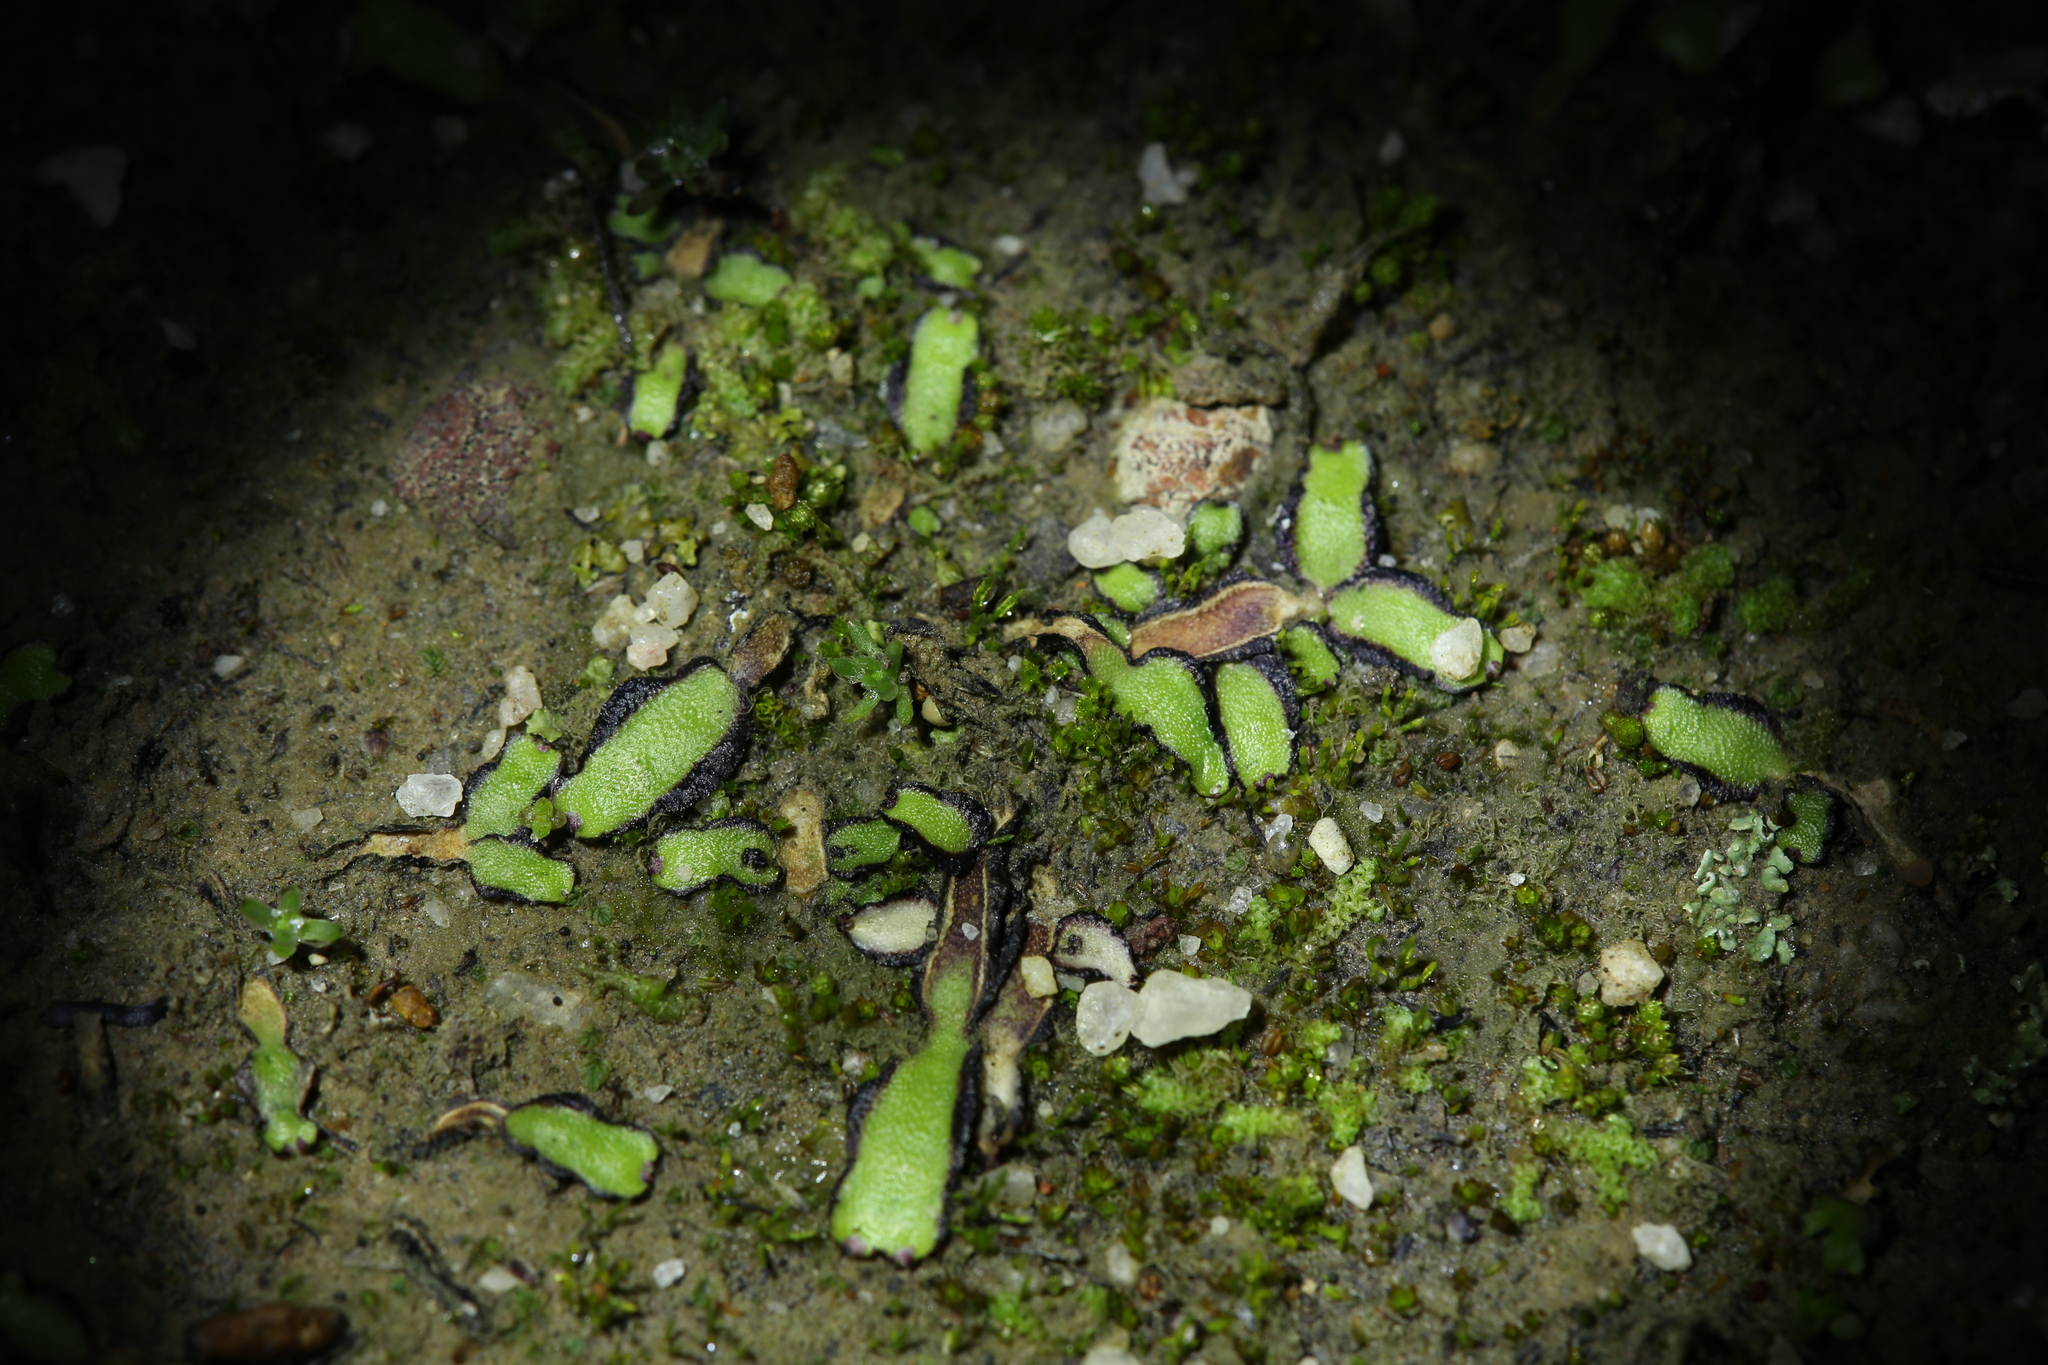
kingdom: Plantae
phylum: Marchantiophyta
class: Marchantiopsida
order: Marchantiales
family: Aytoniaceae
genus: Asterella
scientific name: Asterella drummondii
